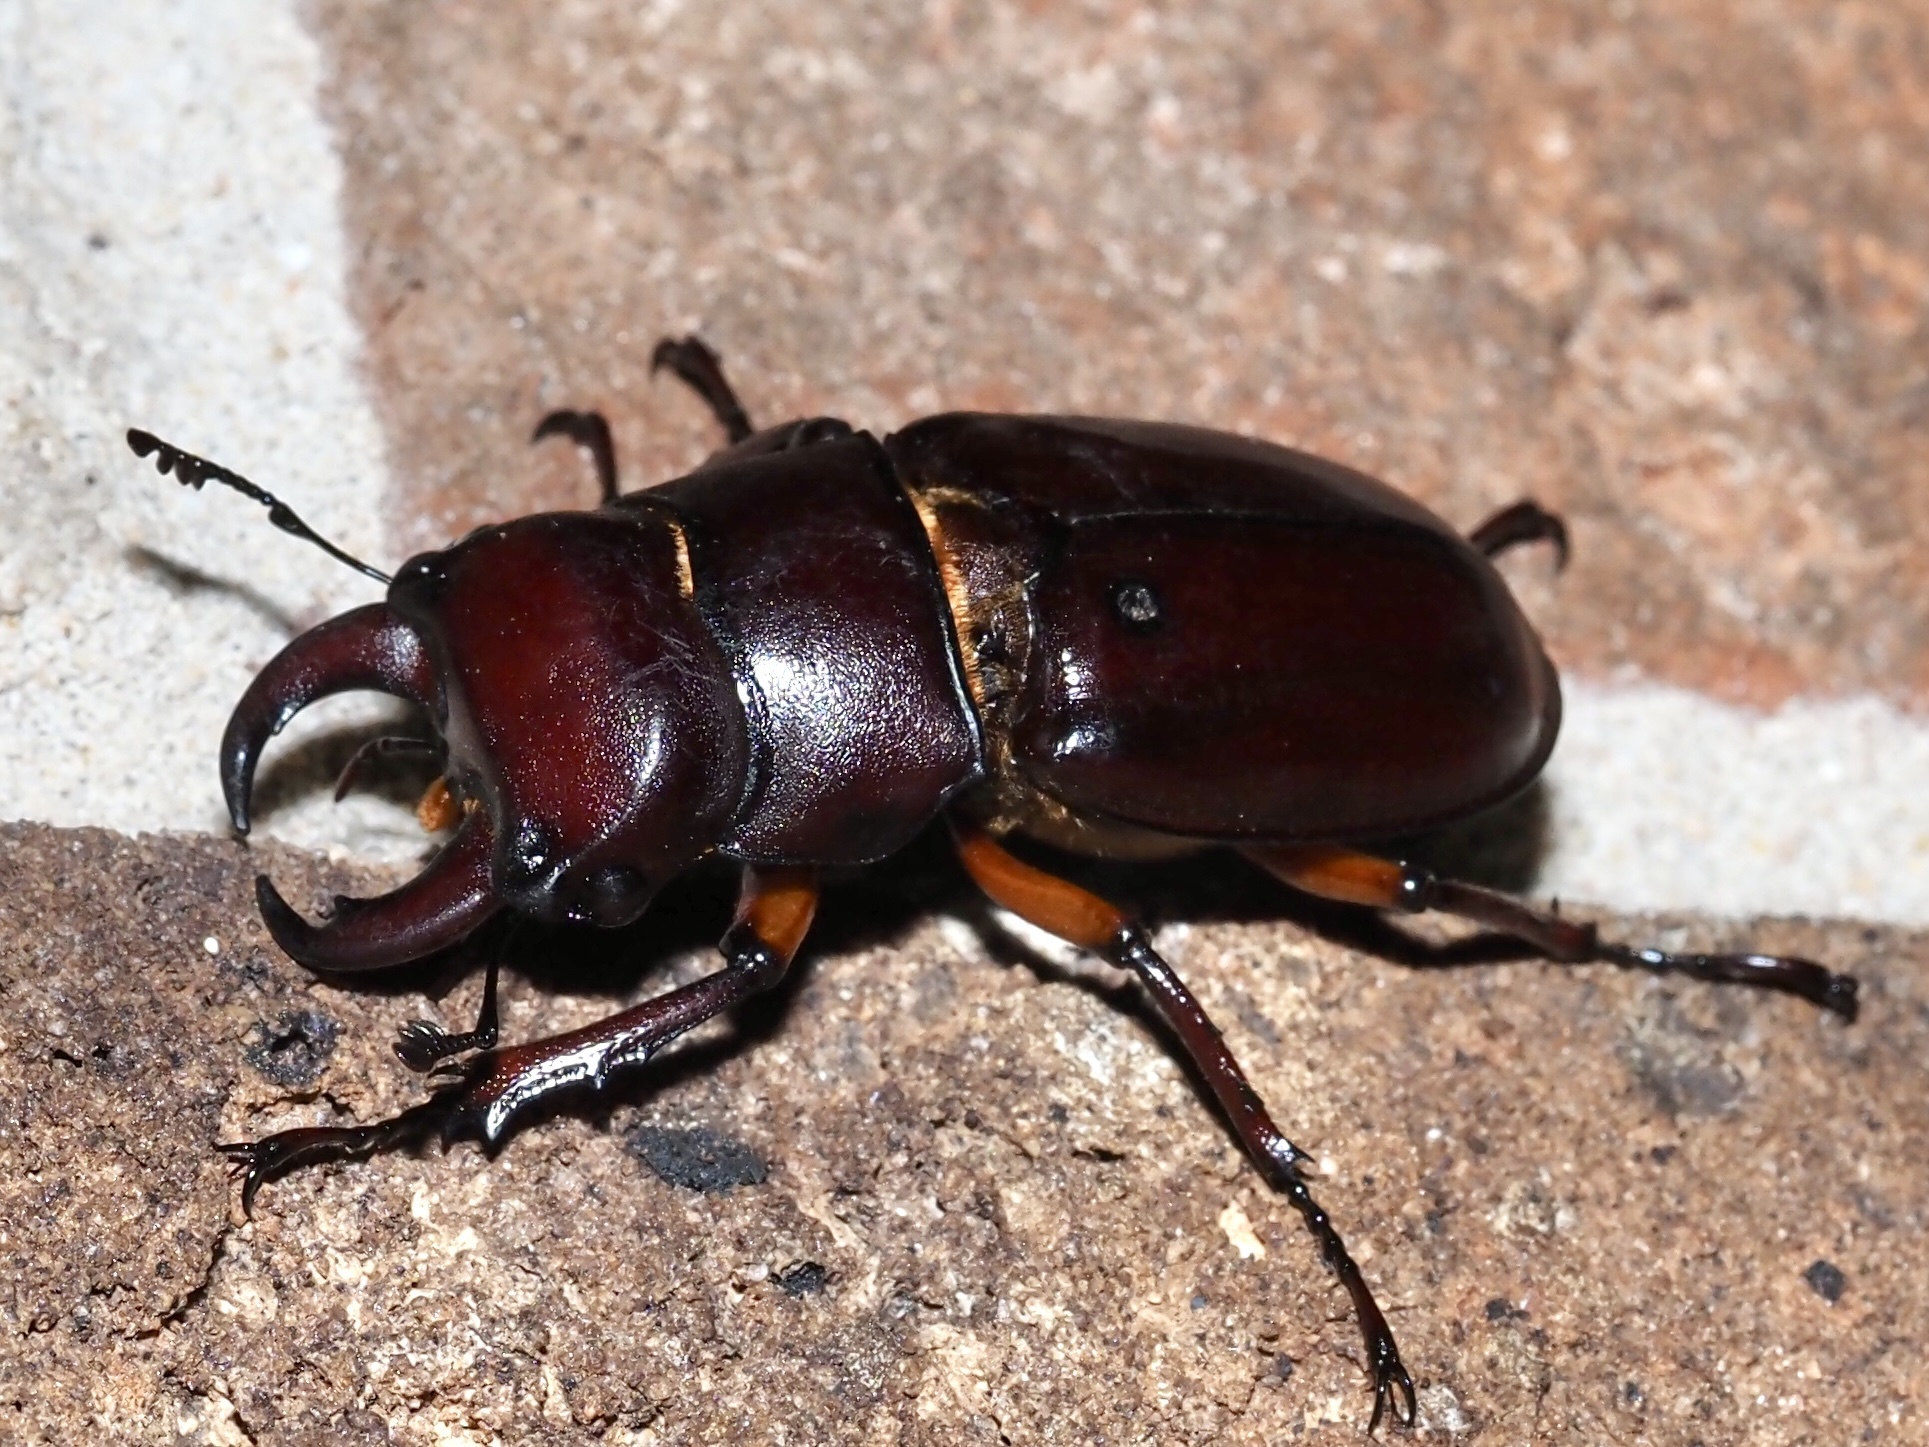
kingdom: Animalia
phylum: Arthropoda
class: Insecta
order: Coleoptera
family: Lucanidae
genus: Lucanus
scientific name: Lucanus capreolus
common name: Stag beetle
